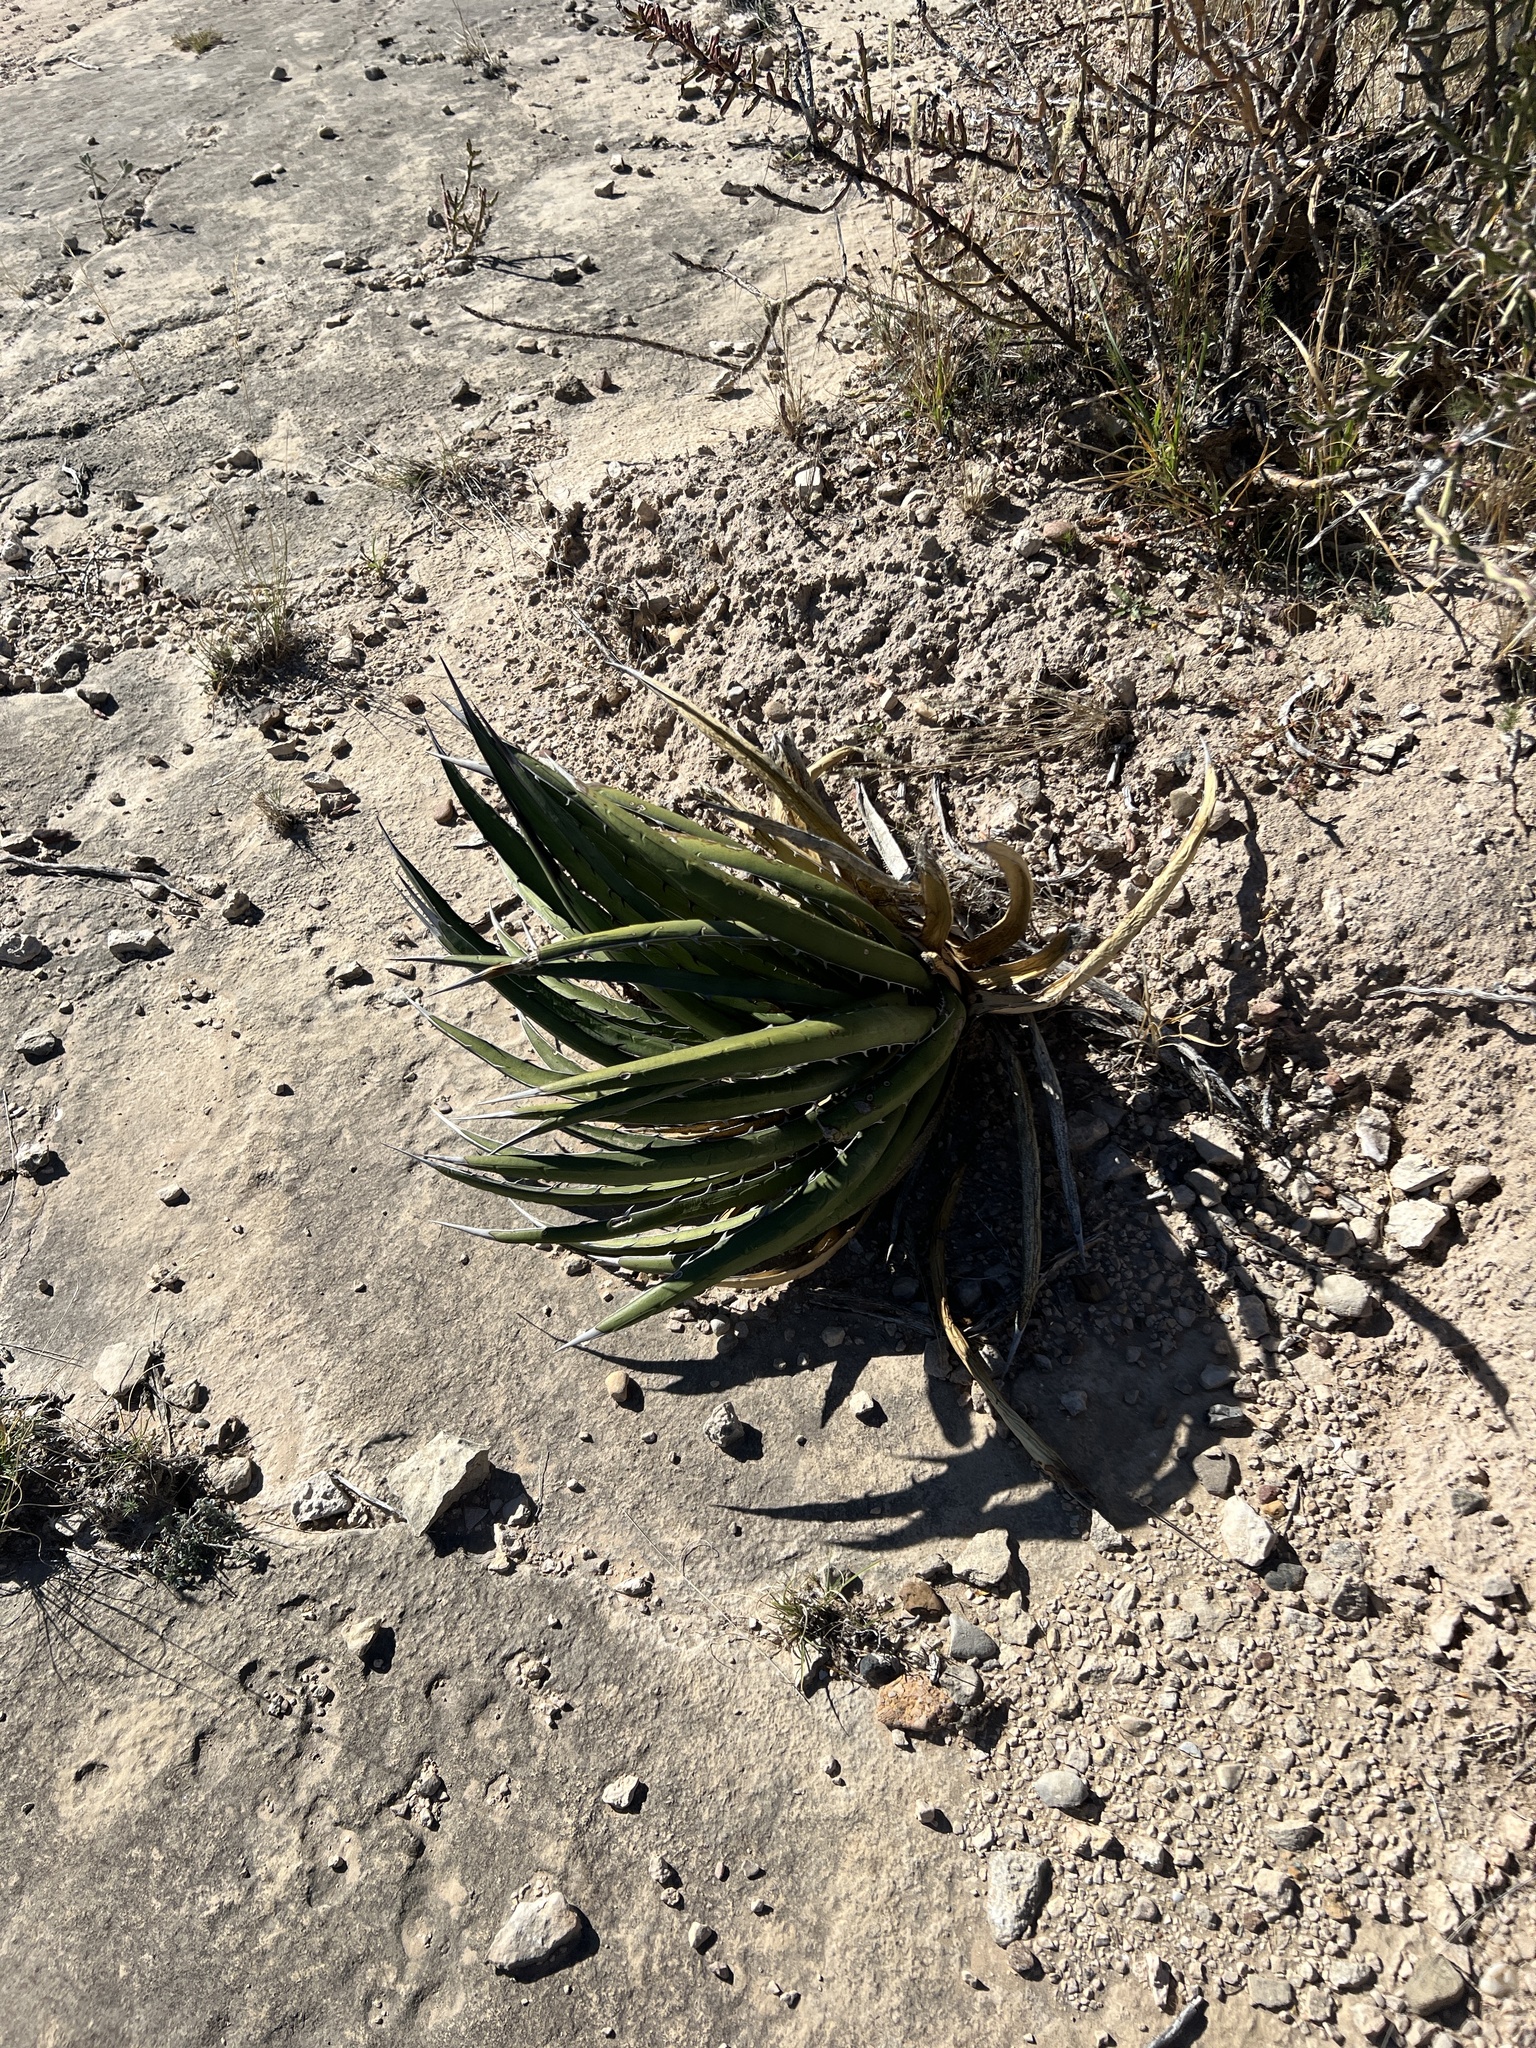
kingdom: Plantae
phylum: Tracheophyta
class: Liliopsida
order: Asparagales
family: Asparagaceae
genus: Agave
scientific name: Agave lechuguilla
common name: Lecheguilla agave
